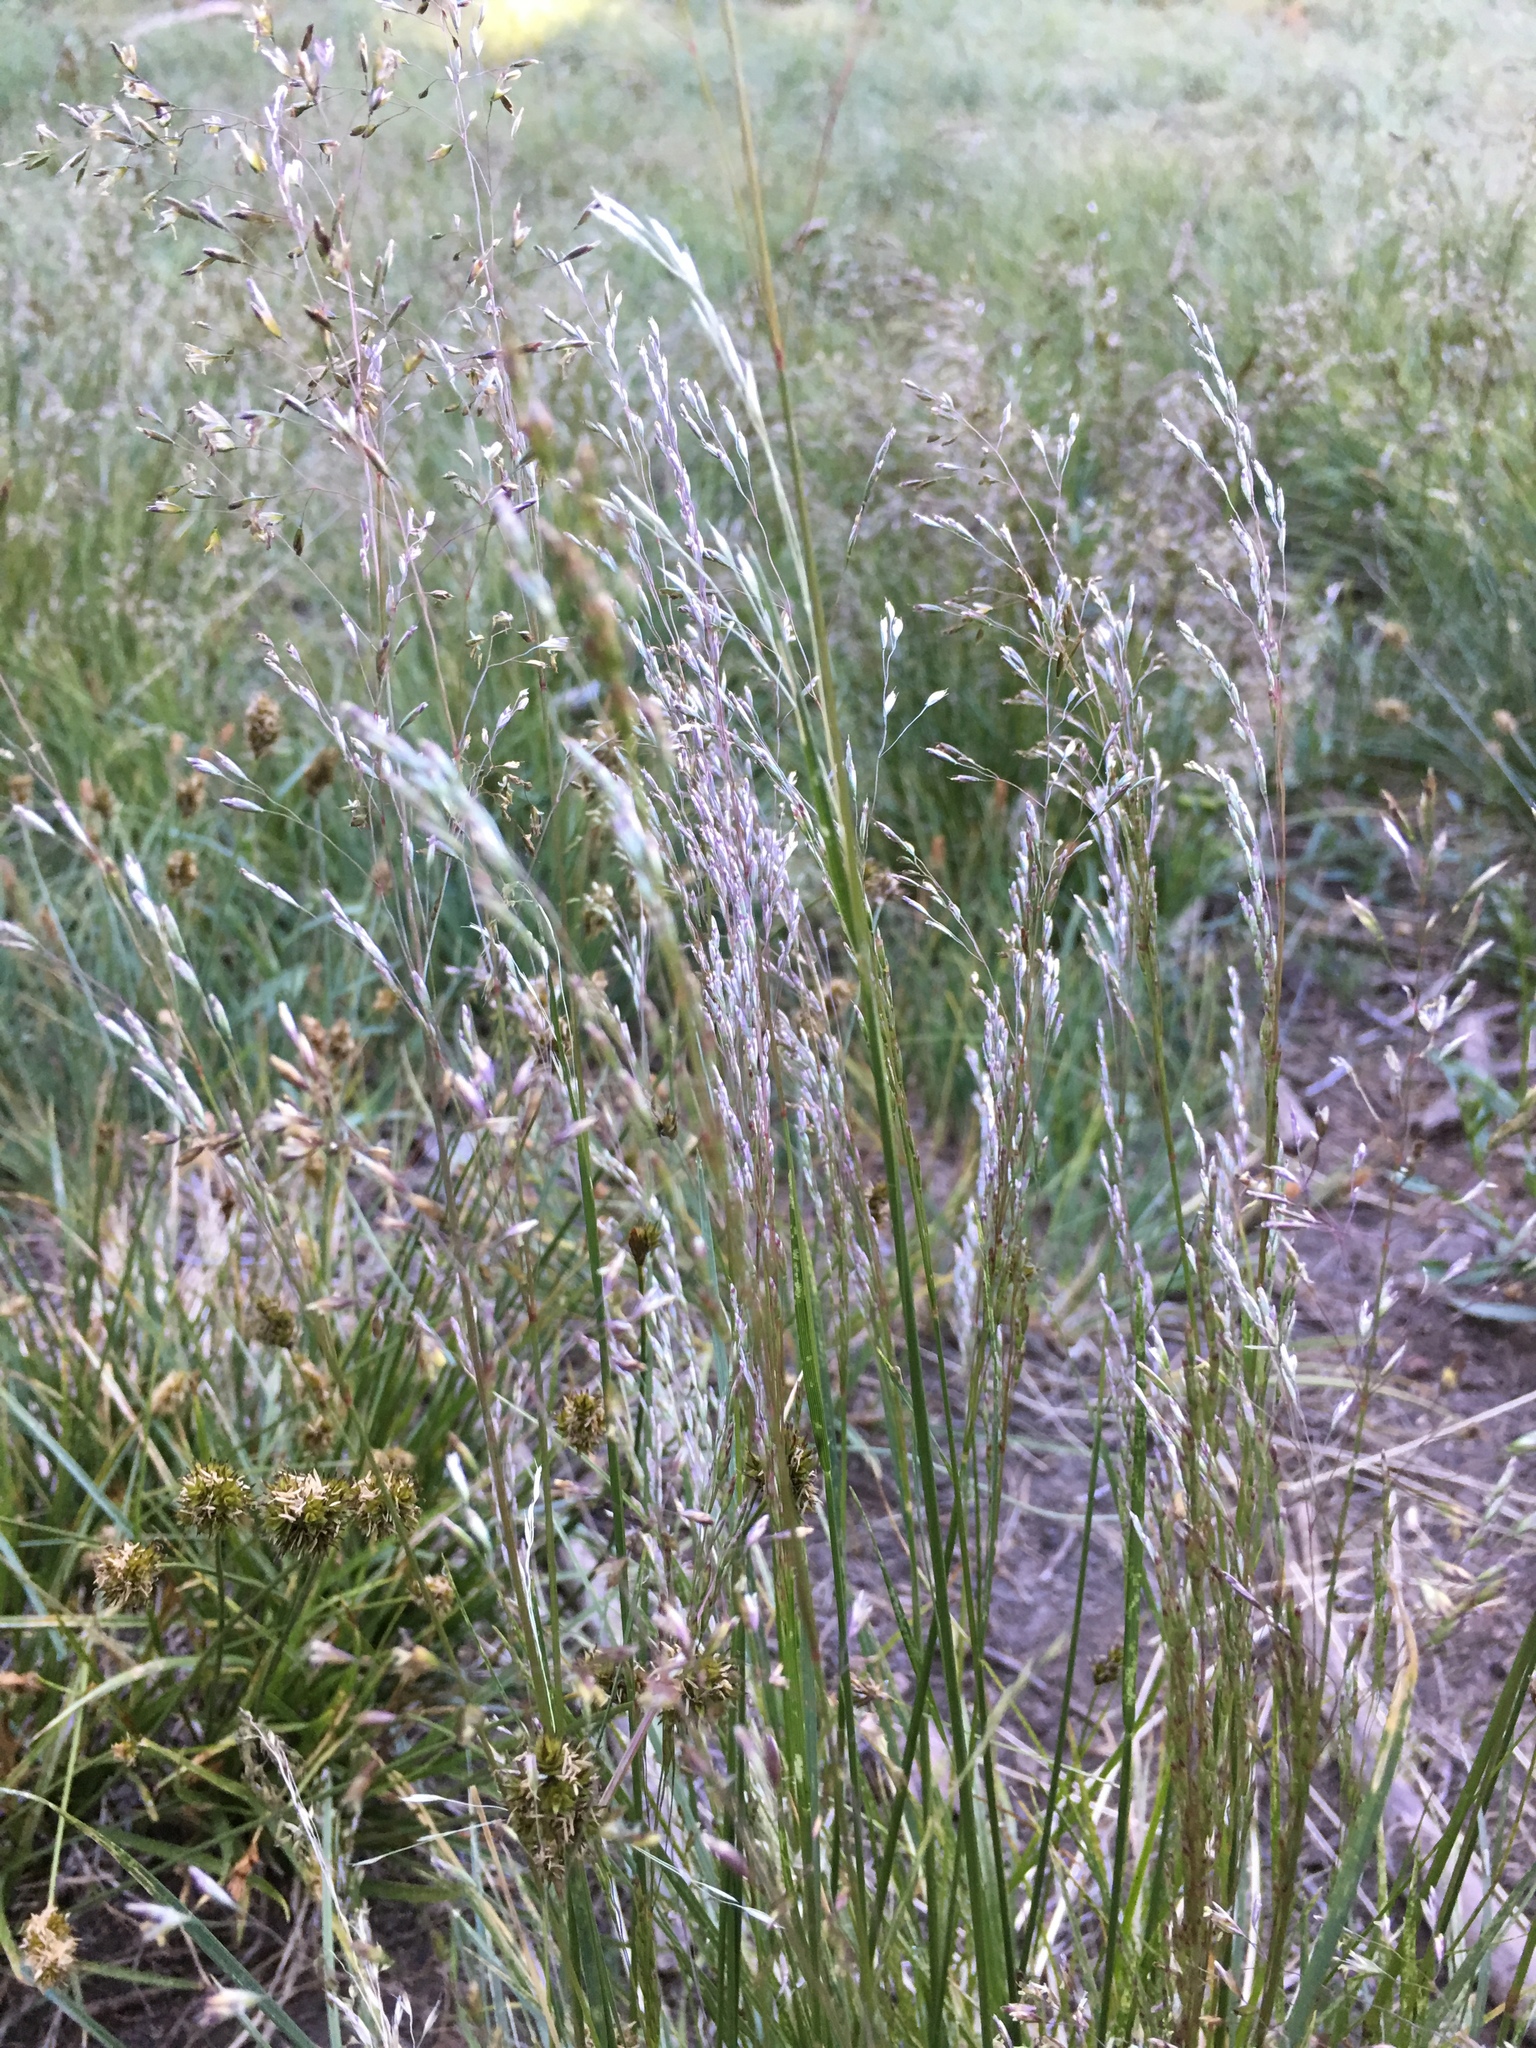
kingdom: Plantae
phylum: Tracheophyta
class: Liliopsida
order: Poales
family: Poaceae
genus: Deschampsia
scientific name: Deschampsia cespitosa
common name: Tufted hair-grass
